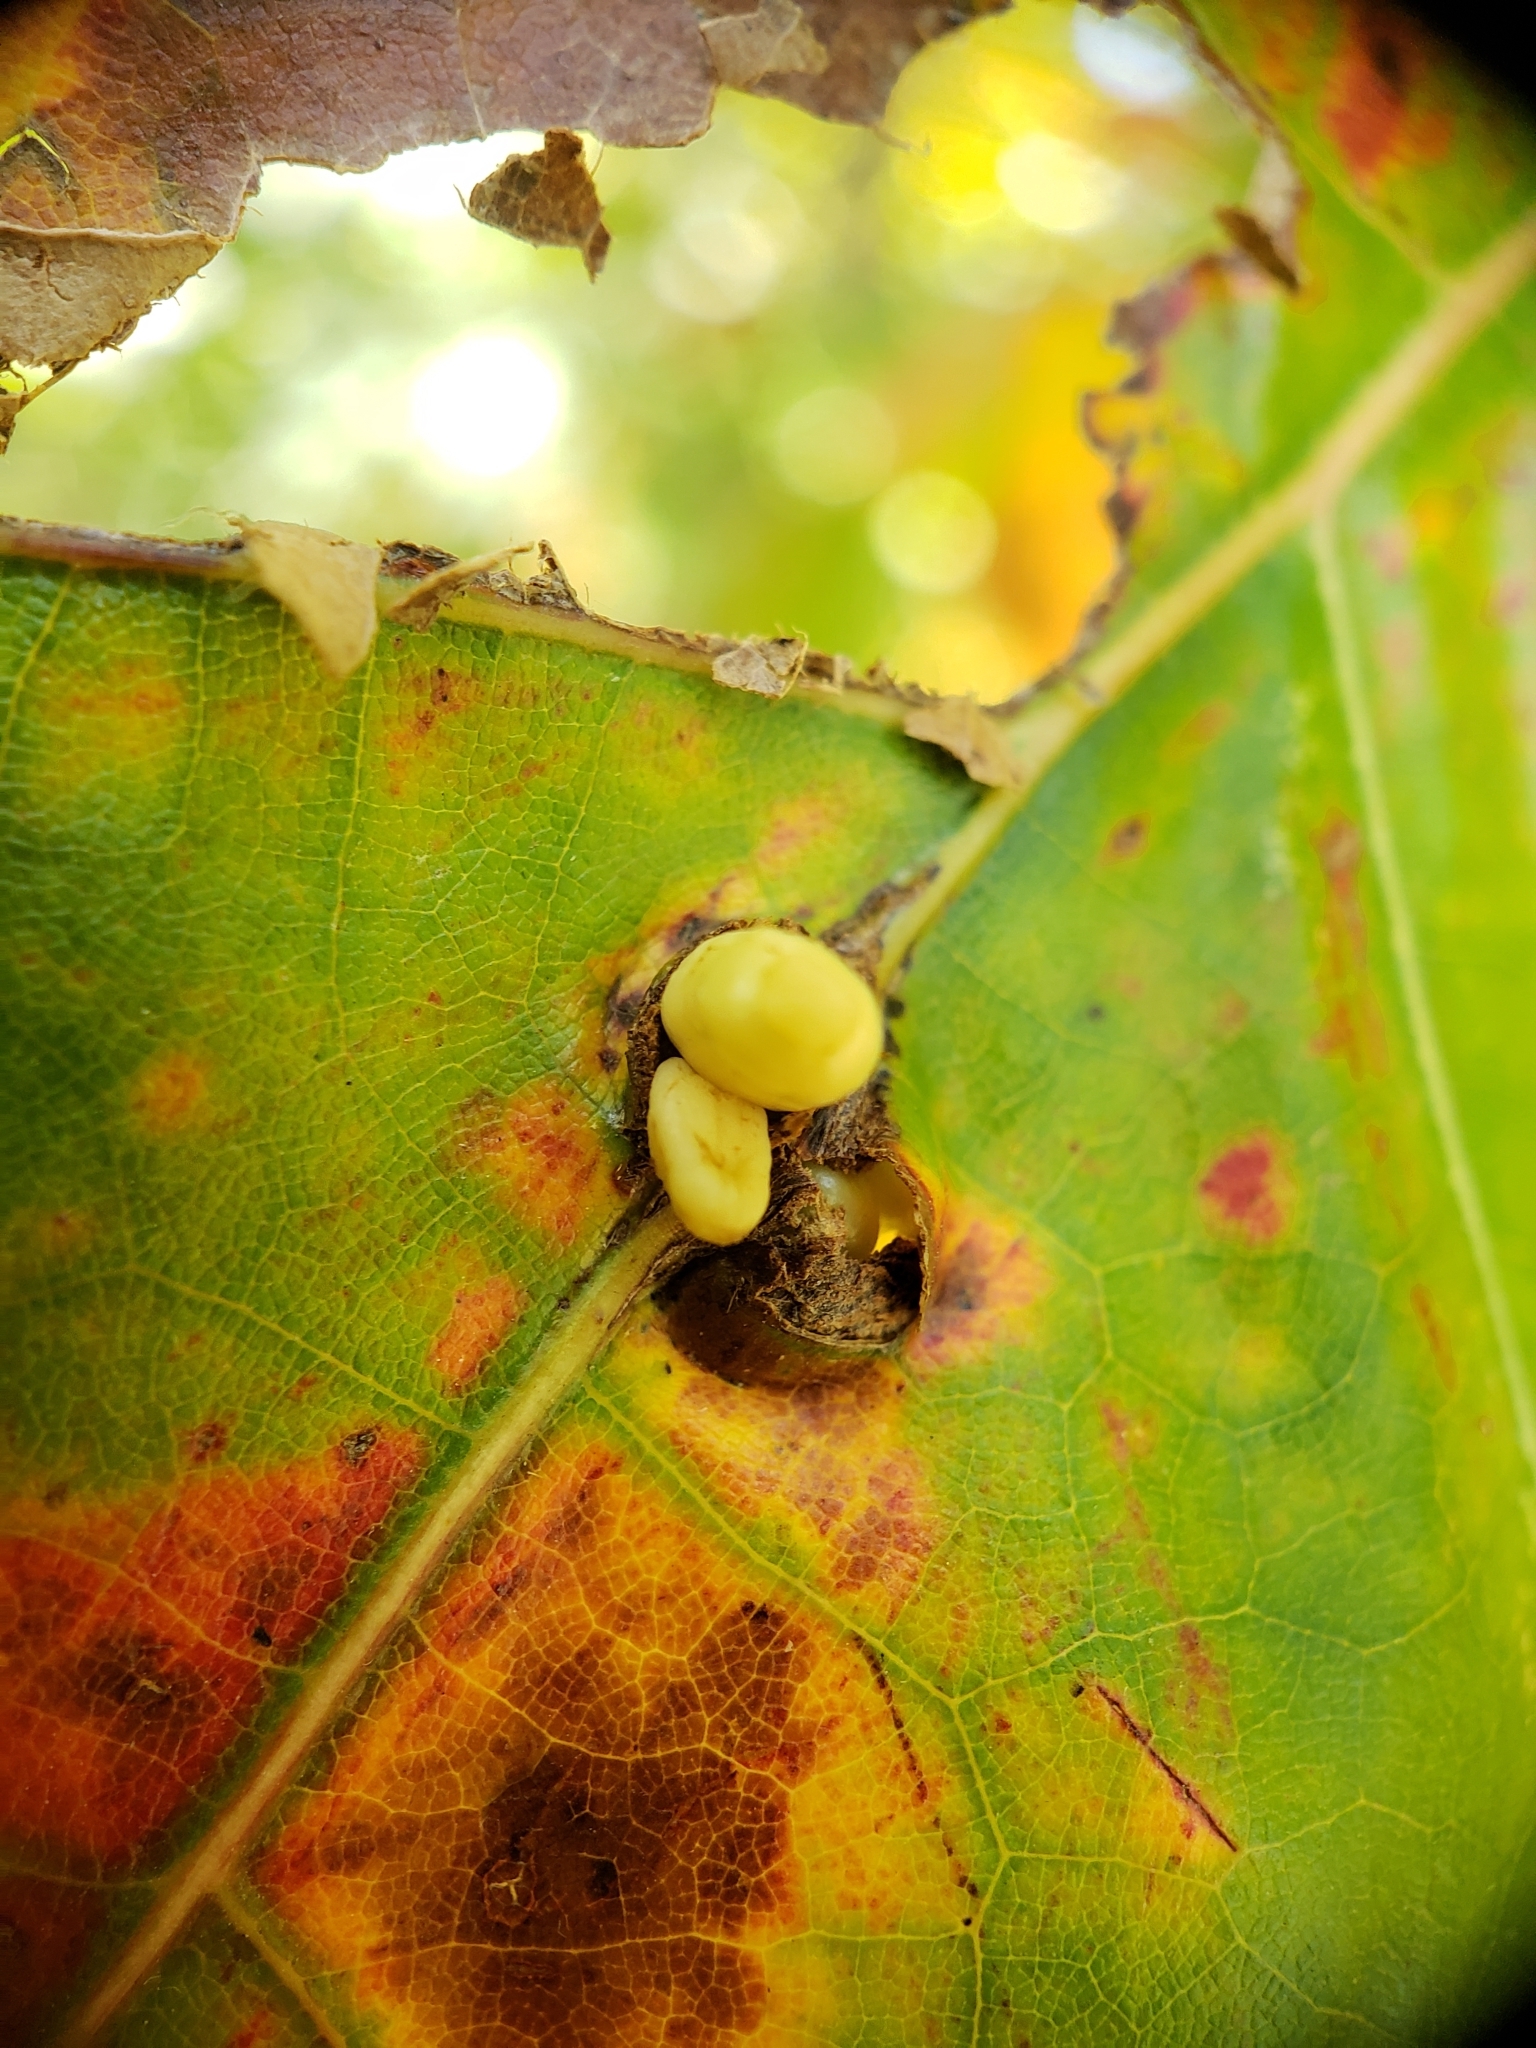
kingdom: Animalia
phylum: Arthropoda
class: Insecta
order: Hymenoptera
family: Cynipidae
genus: Kokkocynips
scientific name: Kokkocynips decidua
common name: Oak wheat gall
